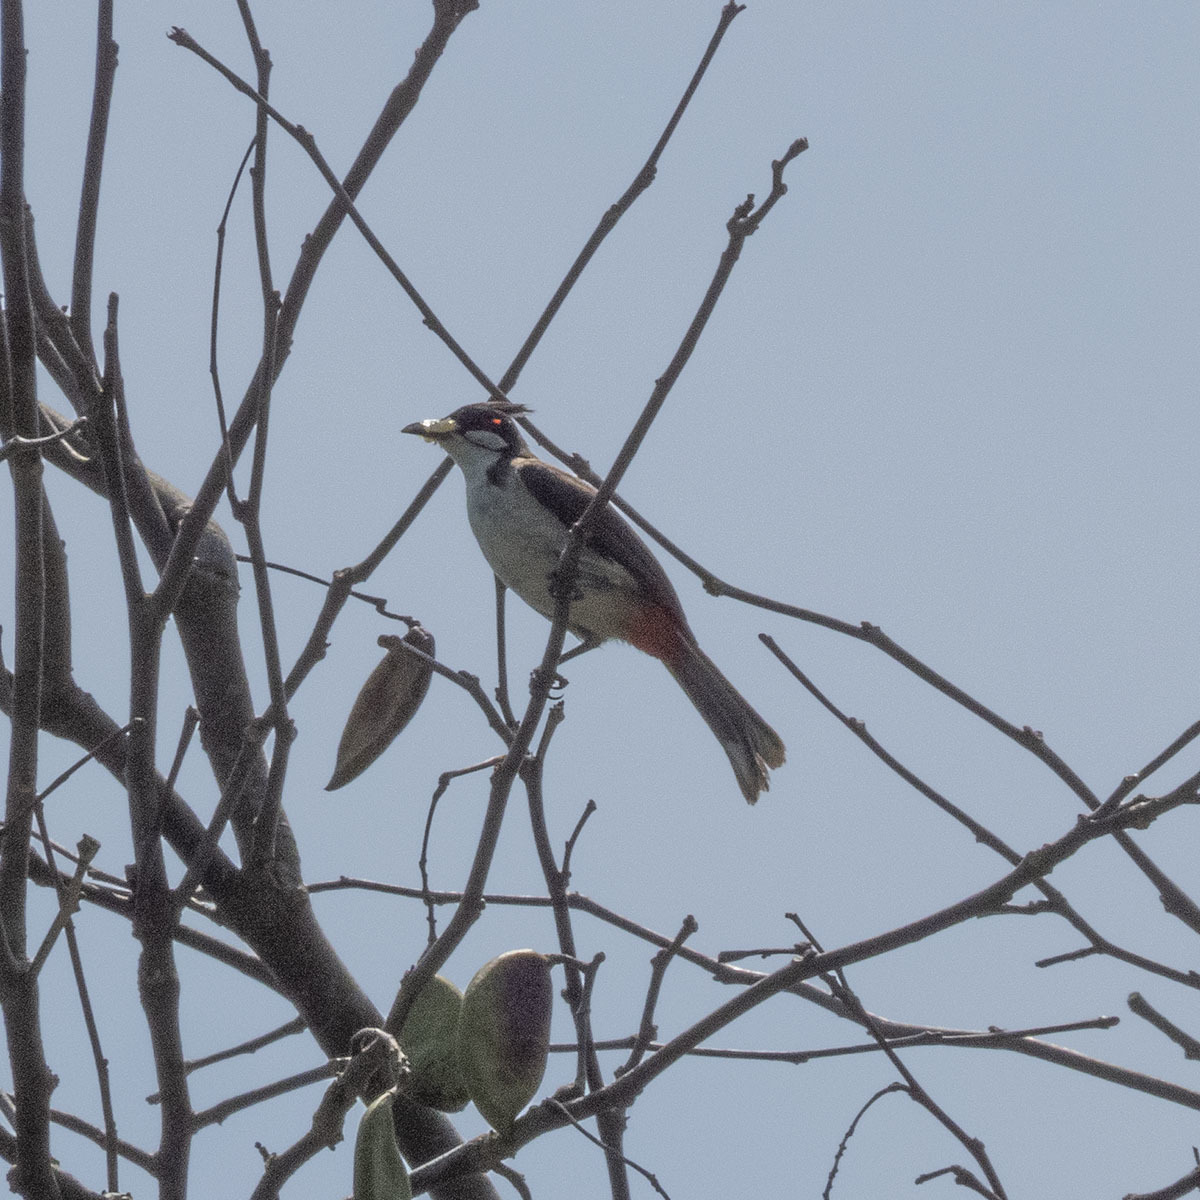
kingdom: Animalia
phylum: Chordata
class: Aves
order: Passeriformes
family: Pycnonotidae
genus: Pycnonotus
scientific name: Pycnonotus jocosus
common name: Red-whiskered bulbul
